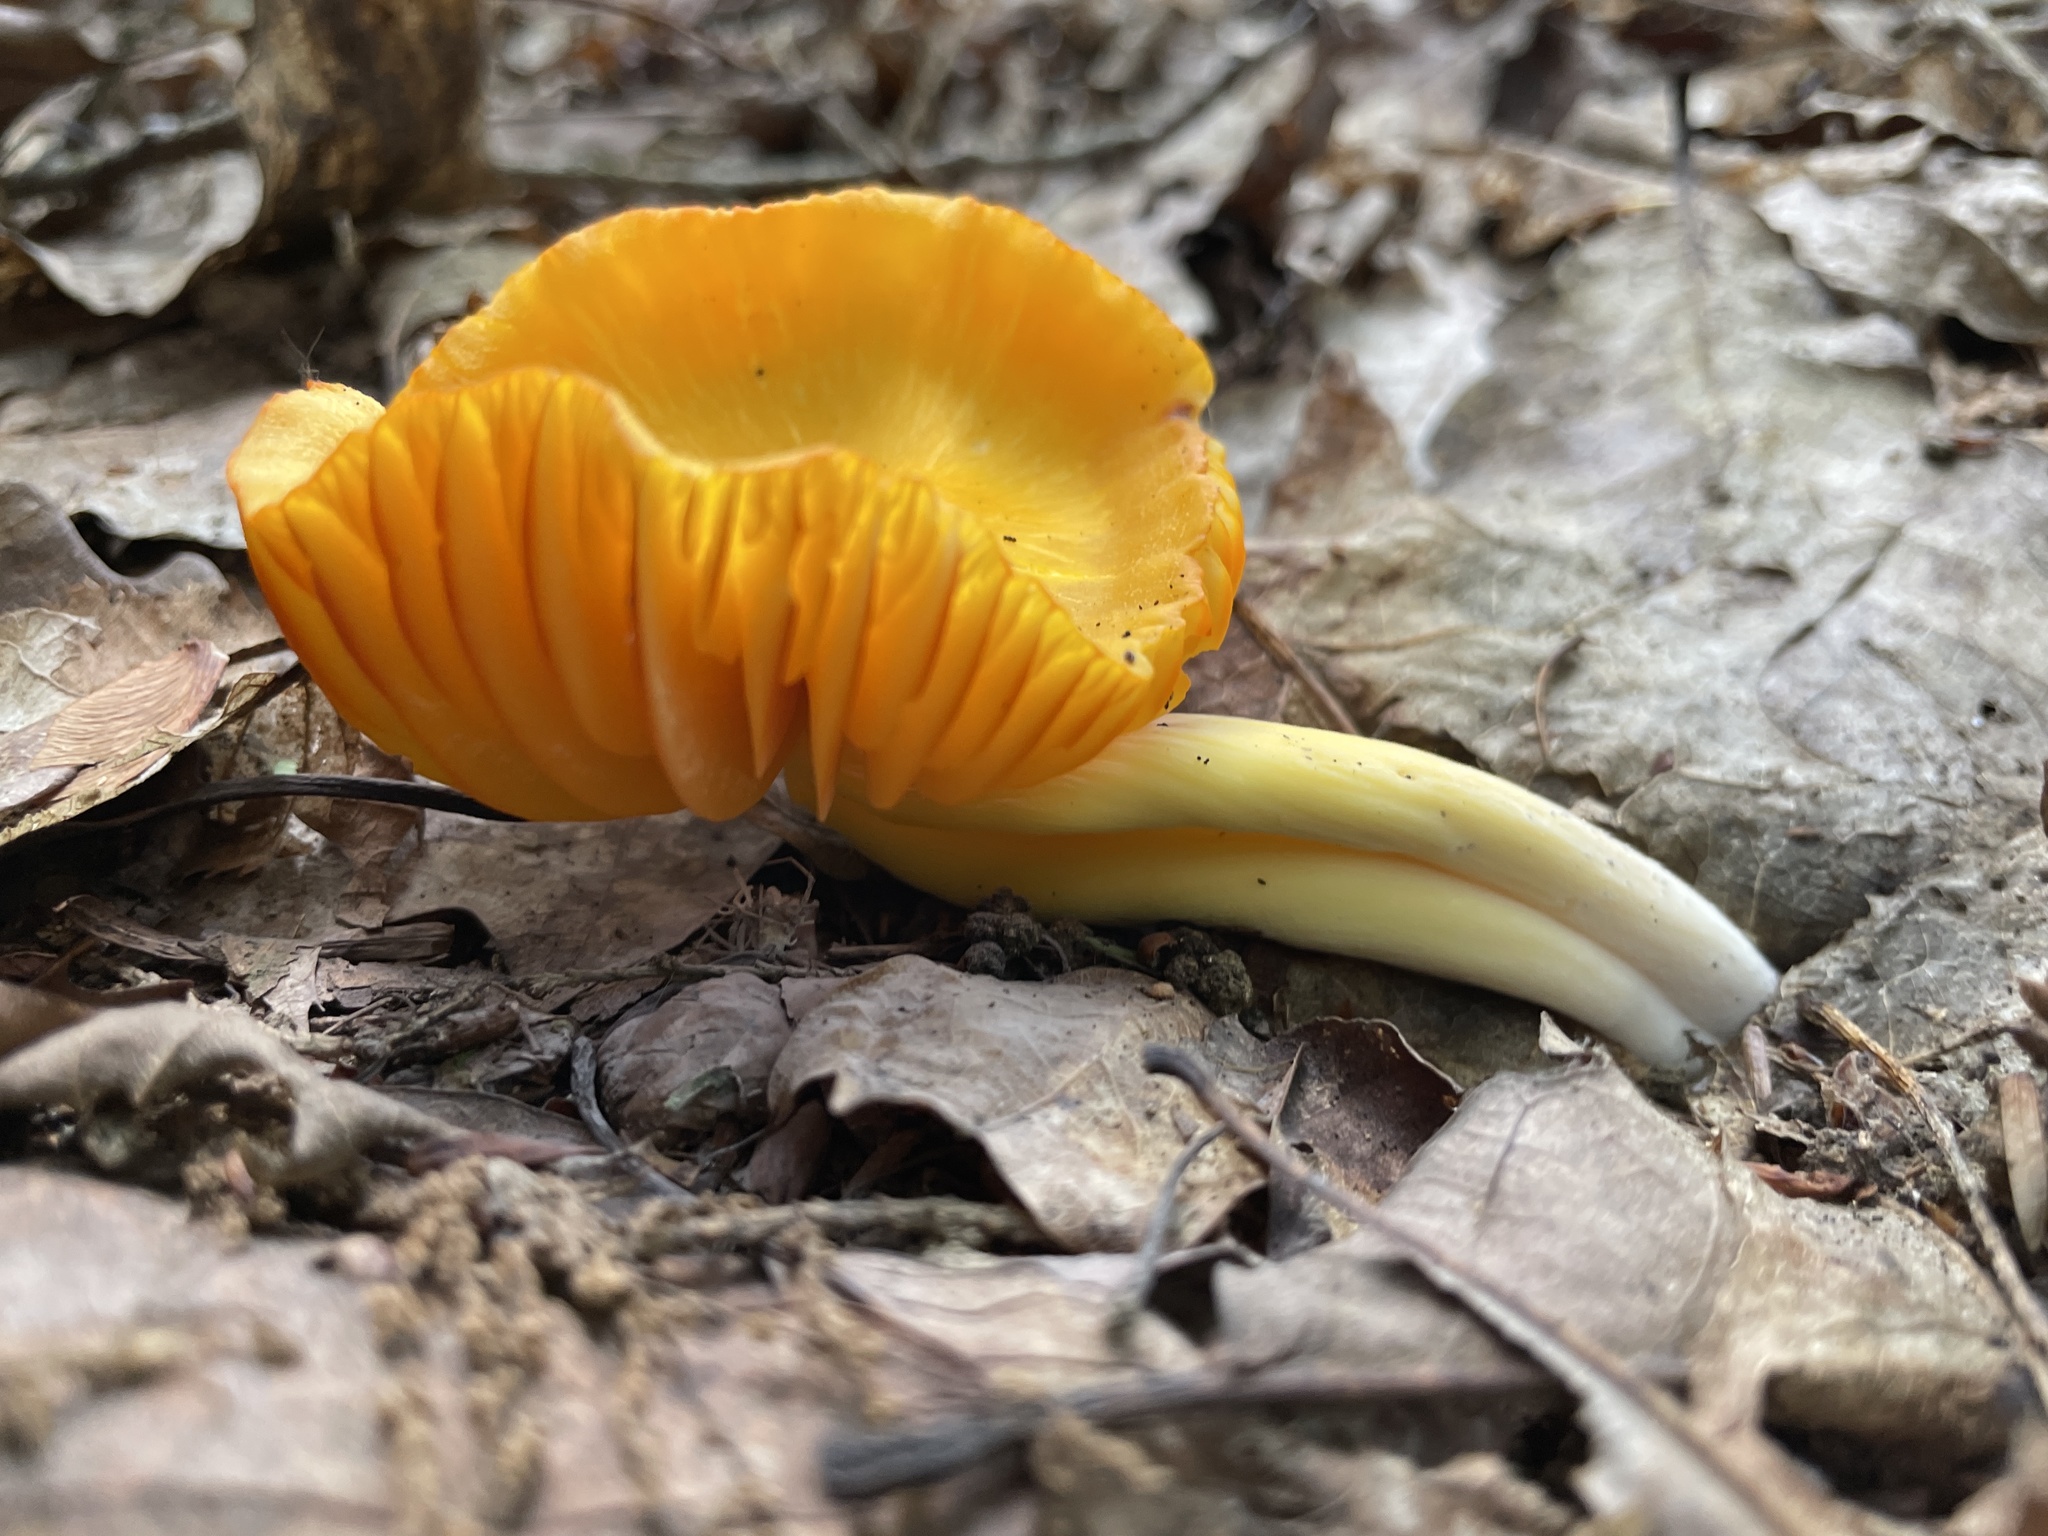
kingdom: Fungi
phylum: Basidiomycota
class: Agaricomycetes
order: Agaricales
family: Hygrophoraceae
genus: Humidicutis
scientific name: Humidicutis marginata
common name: Orange gilled waxcap
